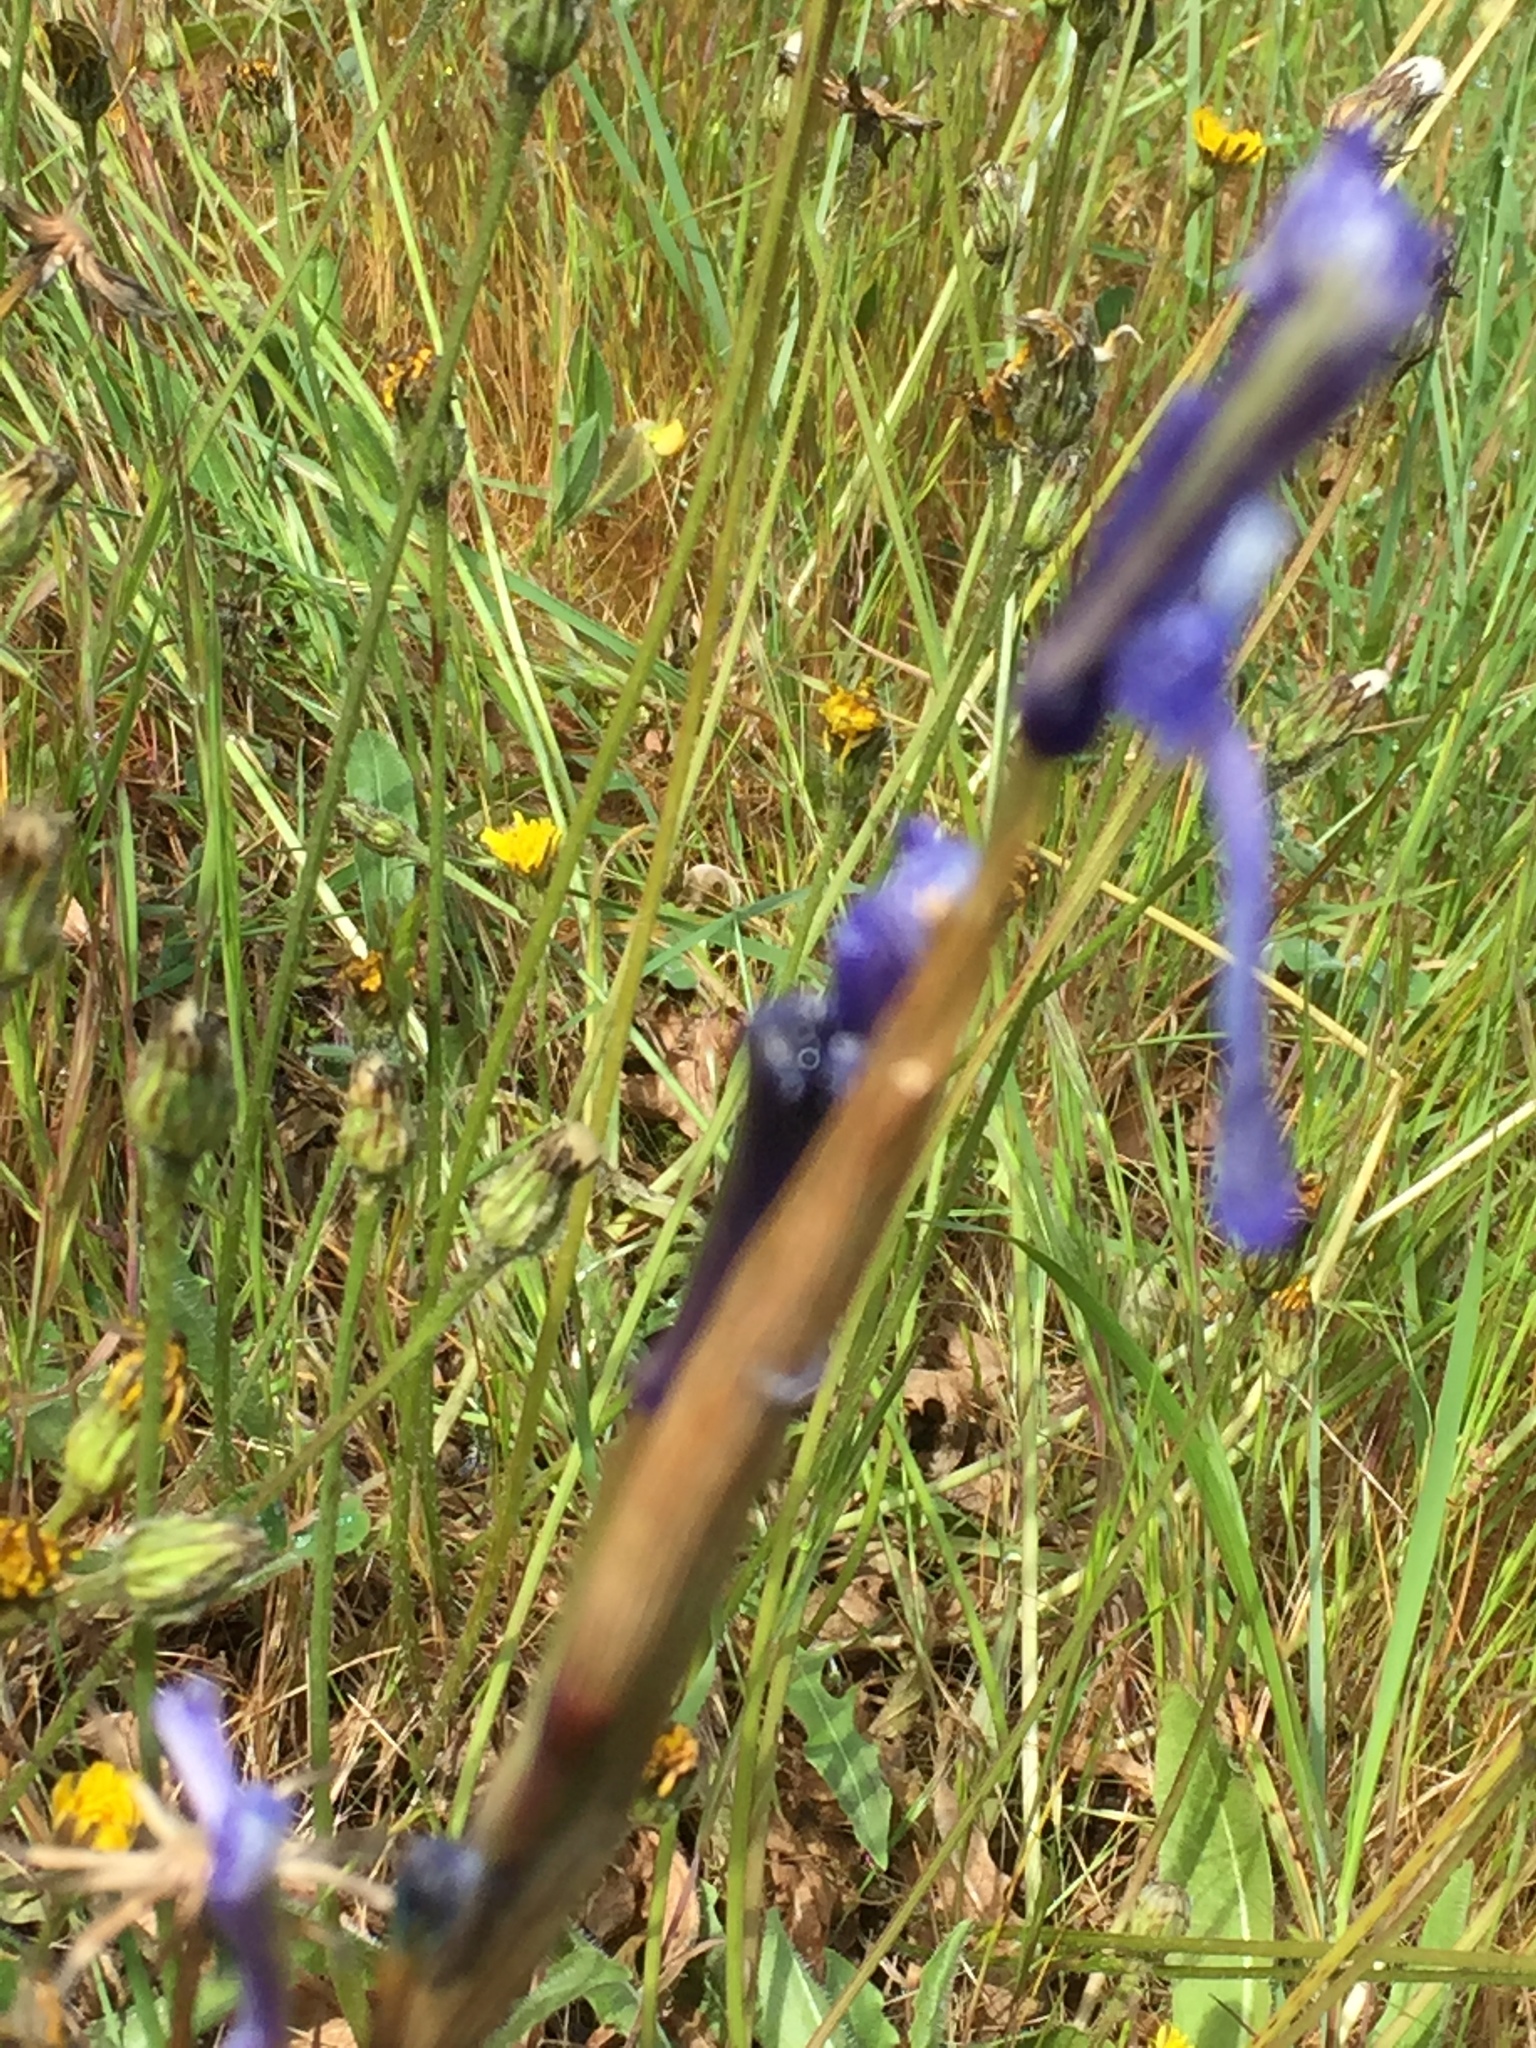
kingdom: Plantae
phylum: Tracheophyta
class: Liliopsida
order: Asparagales
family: Iridaceae
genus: Moraea
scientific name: Moraea sisyrinchium
